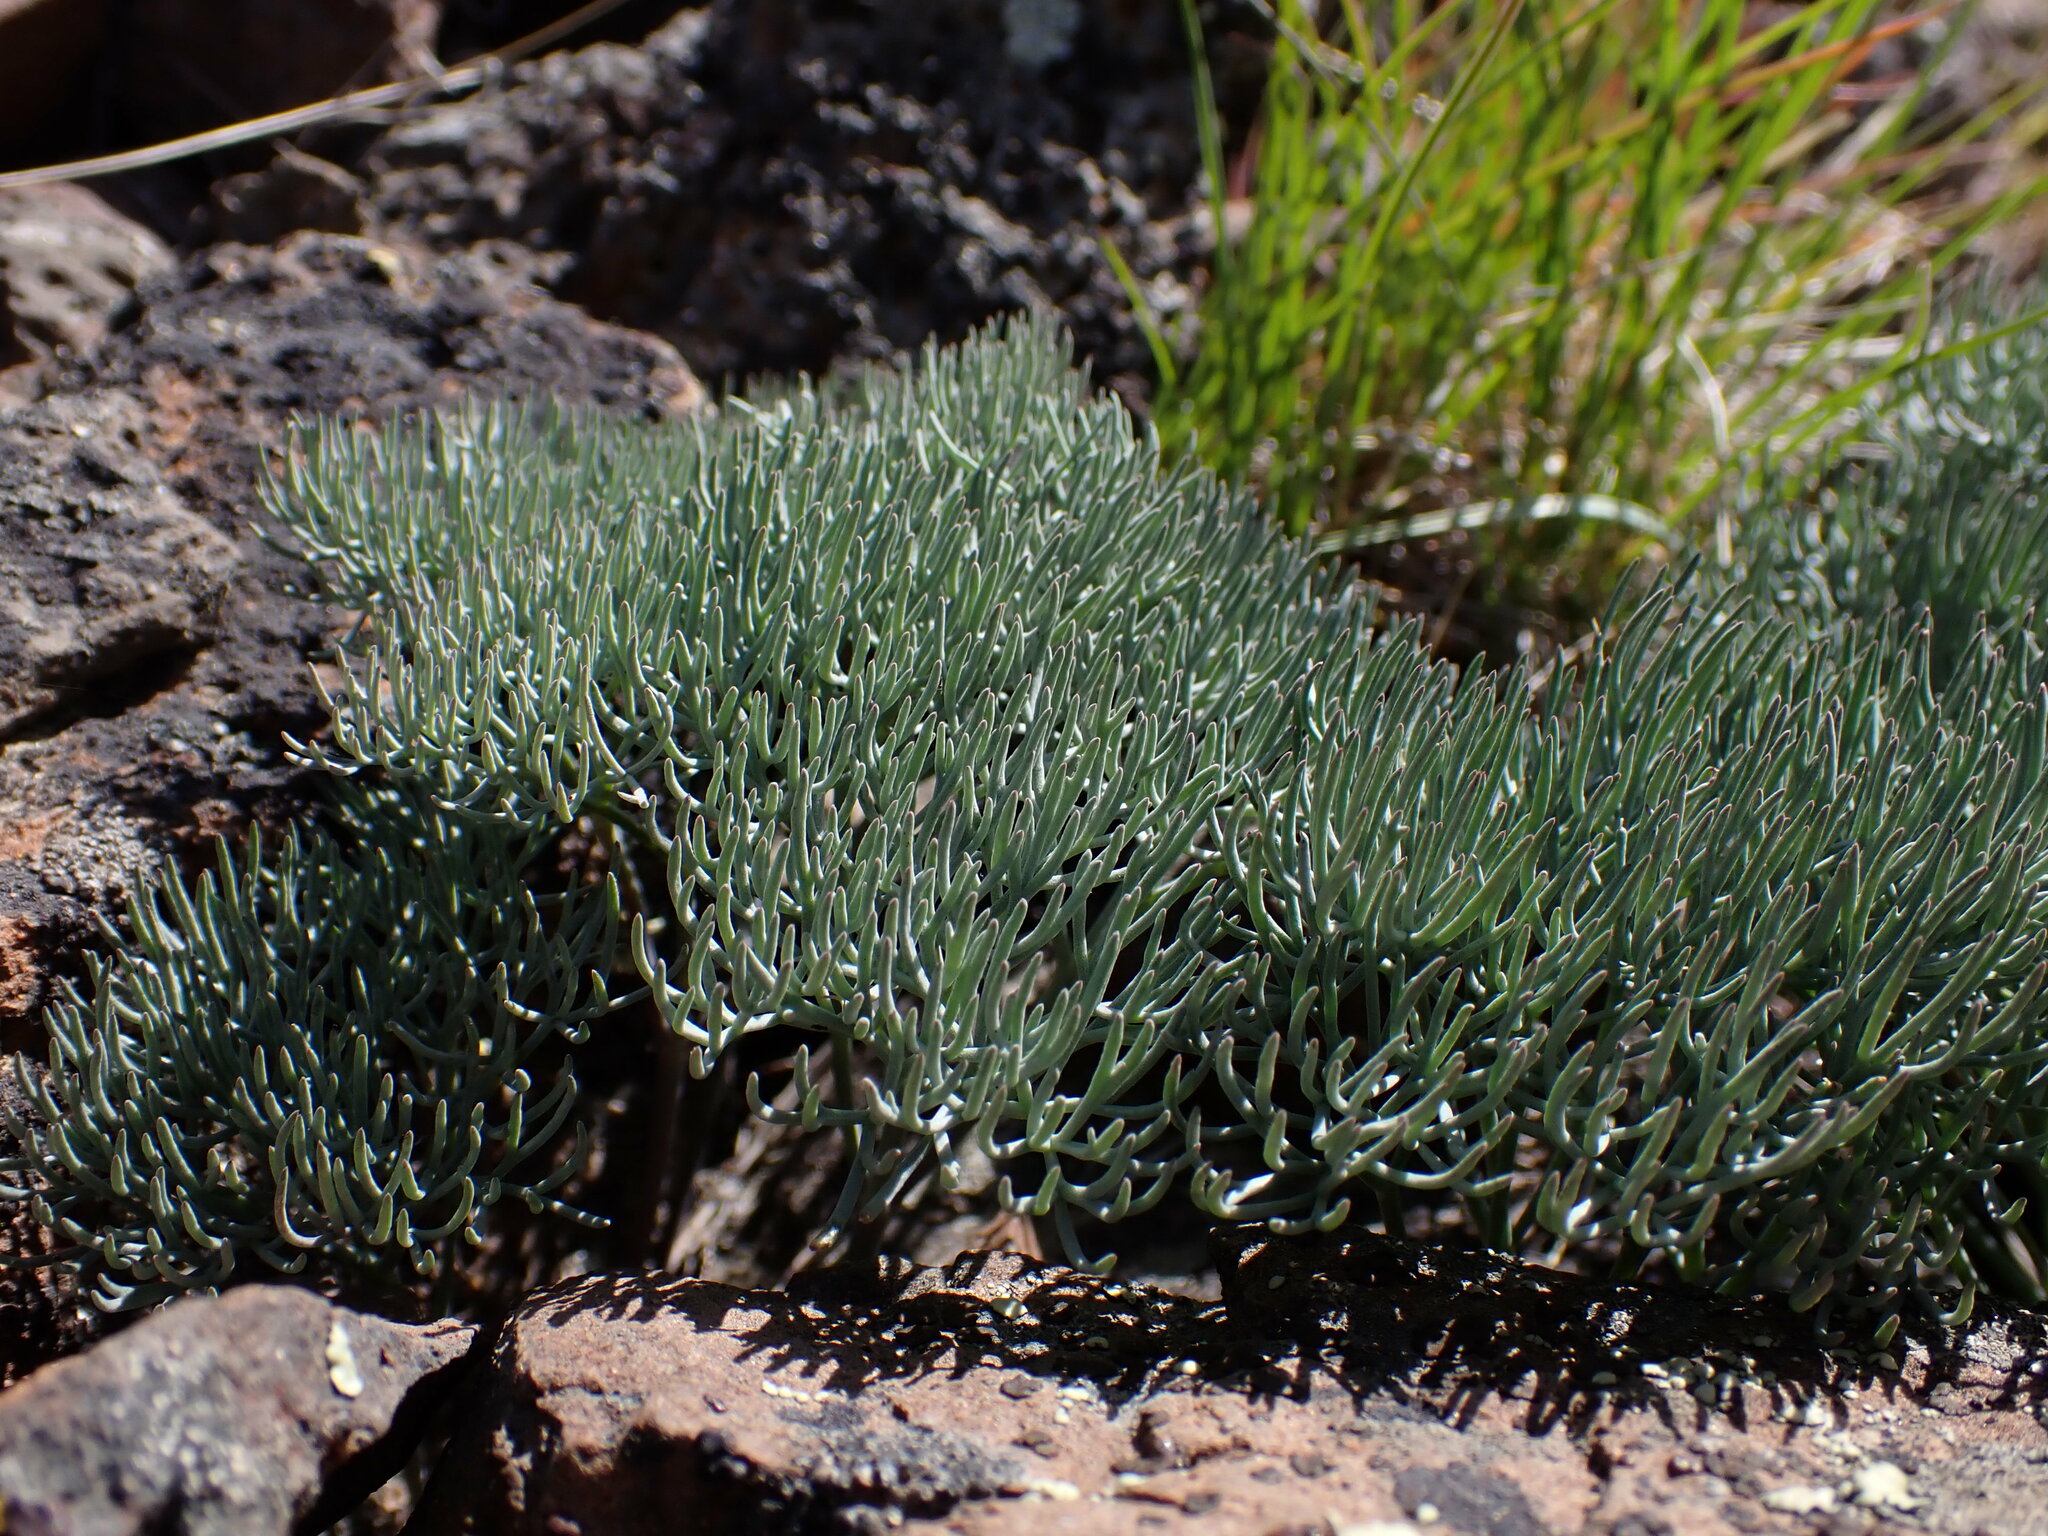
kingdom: Plantae
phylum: Tracheophyta
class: Magnoliopsida
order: Apiales
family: Apiaceae
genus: Lomatium
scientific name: Lomatium tuberosum
